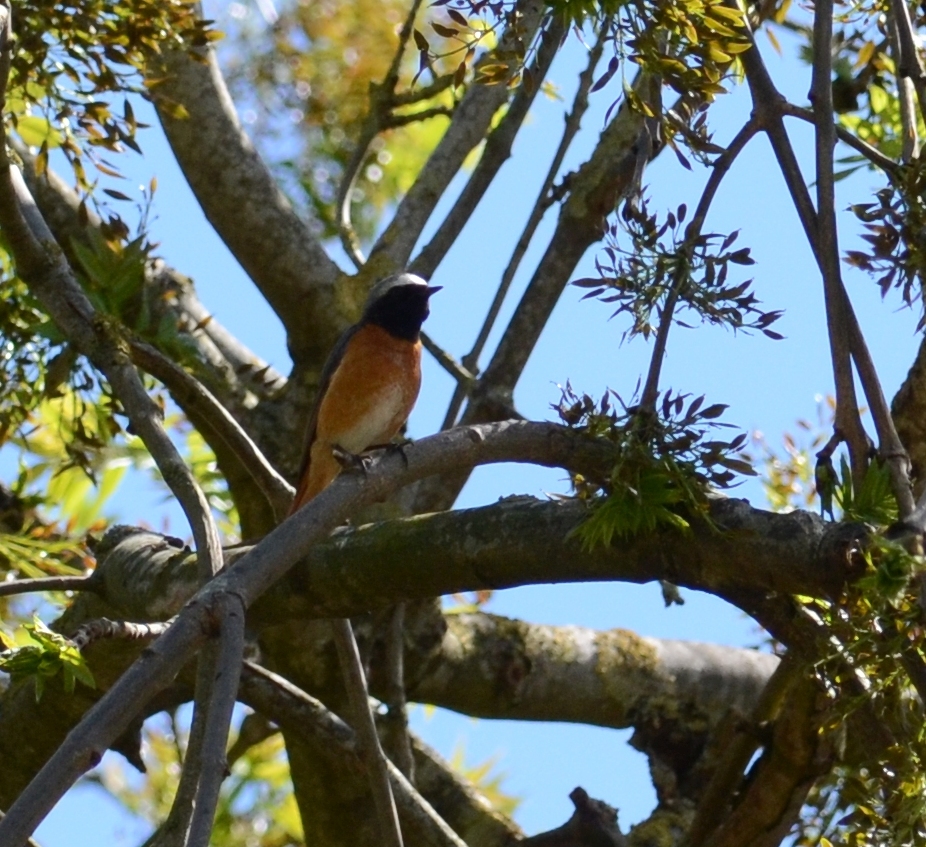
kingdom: Animalia
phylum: Chordata
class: Aves
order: Passeriformes
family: Muscicapidae
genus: Phoenicurus
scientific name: Phoenicurus phoenicurus
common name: Common redstart
